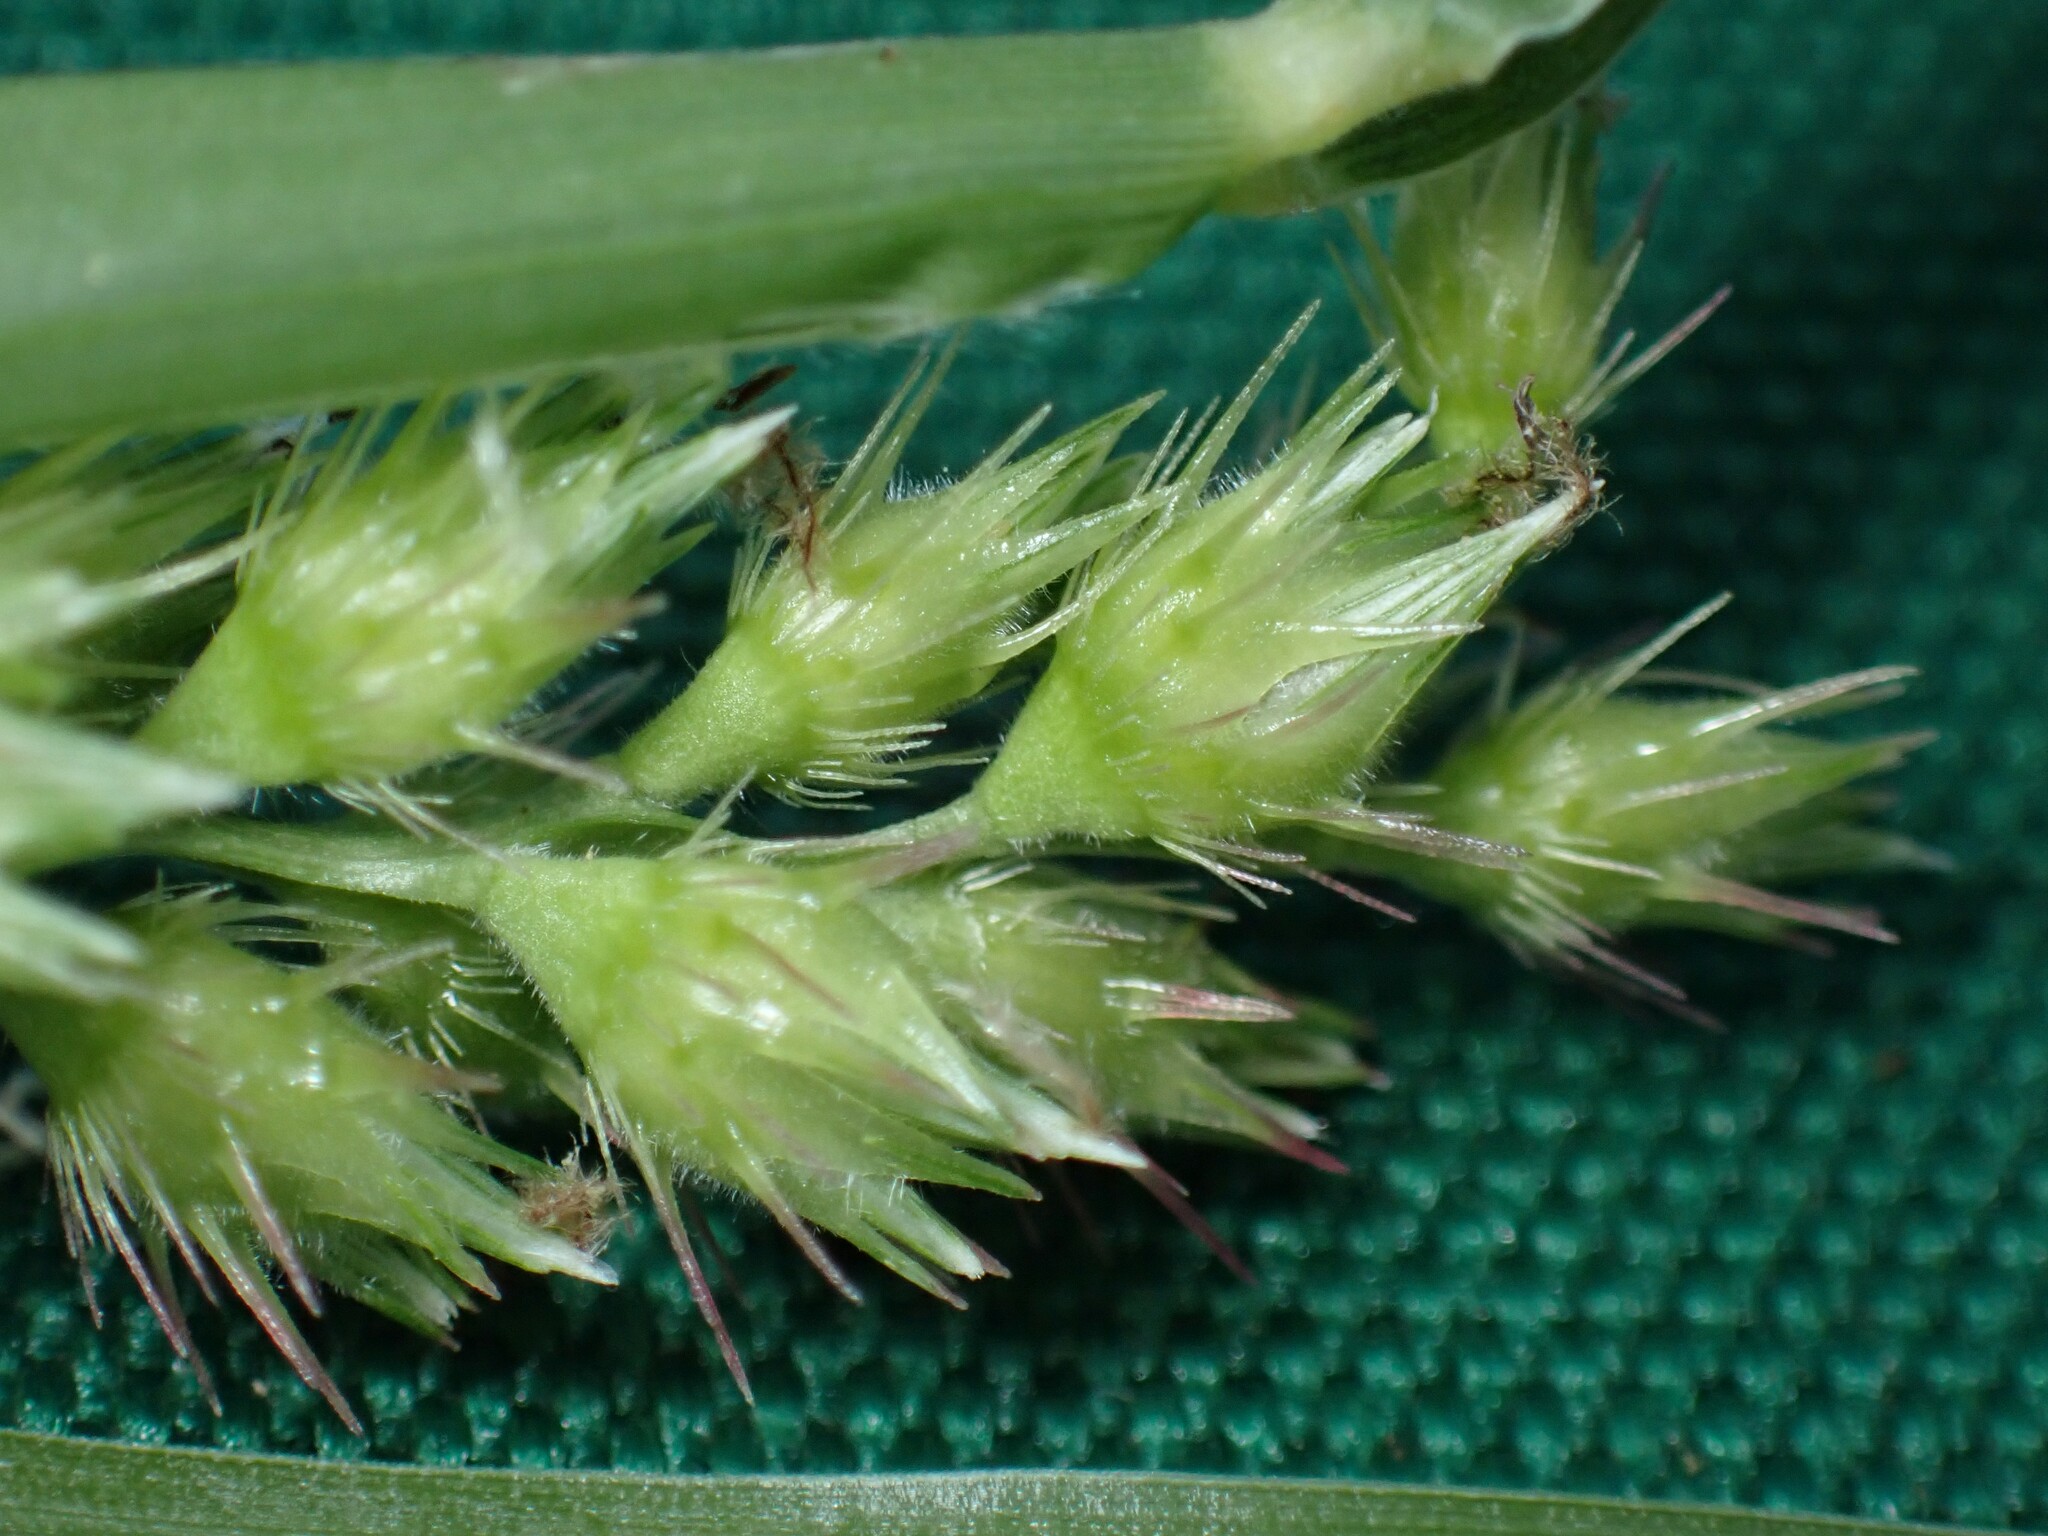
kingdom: Plantae
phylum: Tracheophyta
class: Liliopsida
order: Poales
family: Poaceae
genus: Cenchrus
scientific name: Cenchrus echinatus
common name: Southern sandbur
